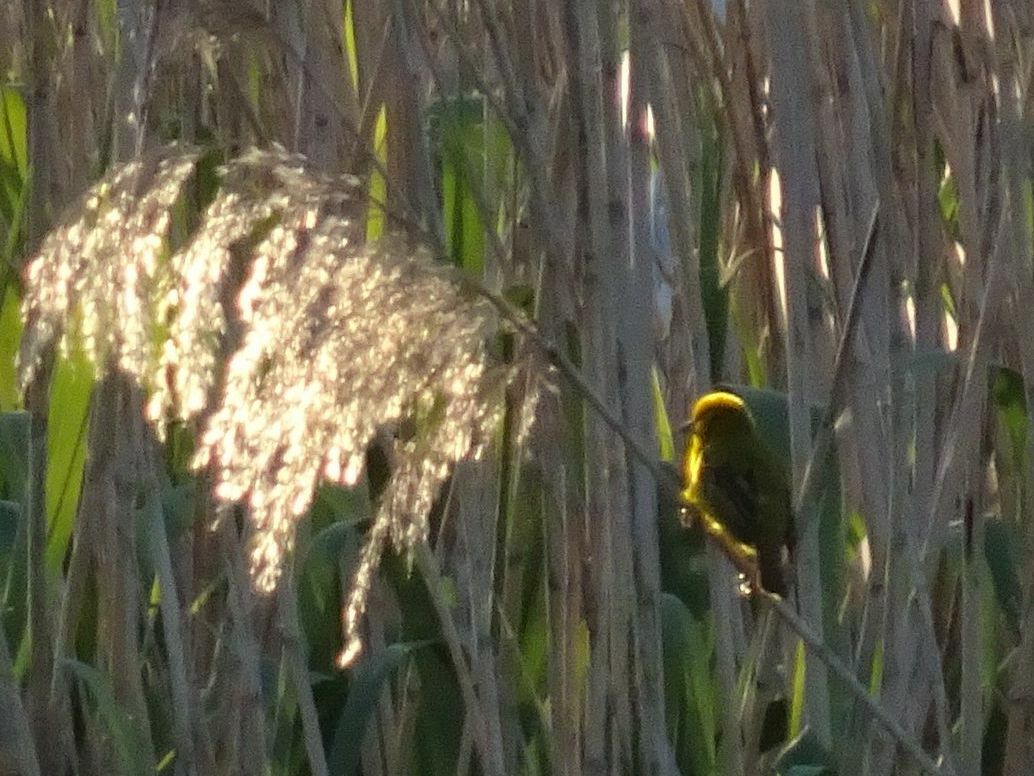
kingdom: Animalia
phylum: Chordata
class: Aves
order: Passeriformes
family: Ploceidae
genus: Ploceus
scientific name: Ploceus capensis
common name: Cape weaver
